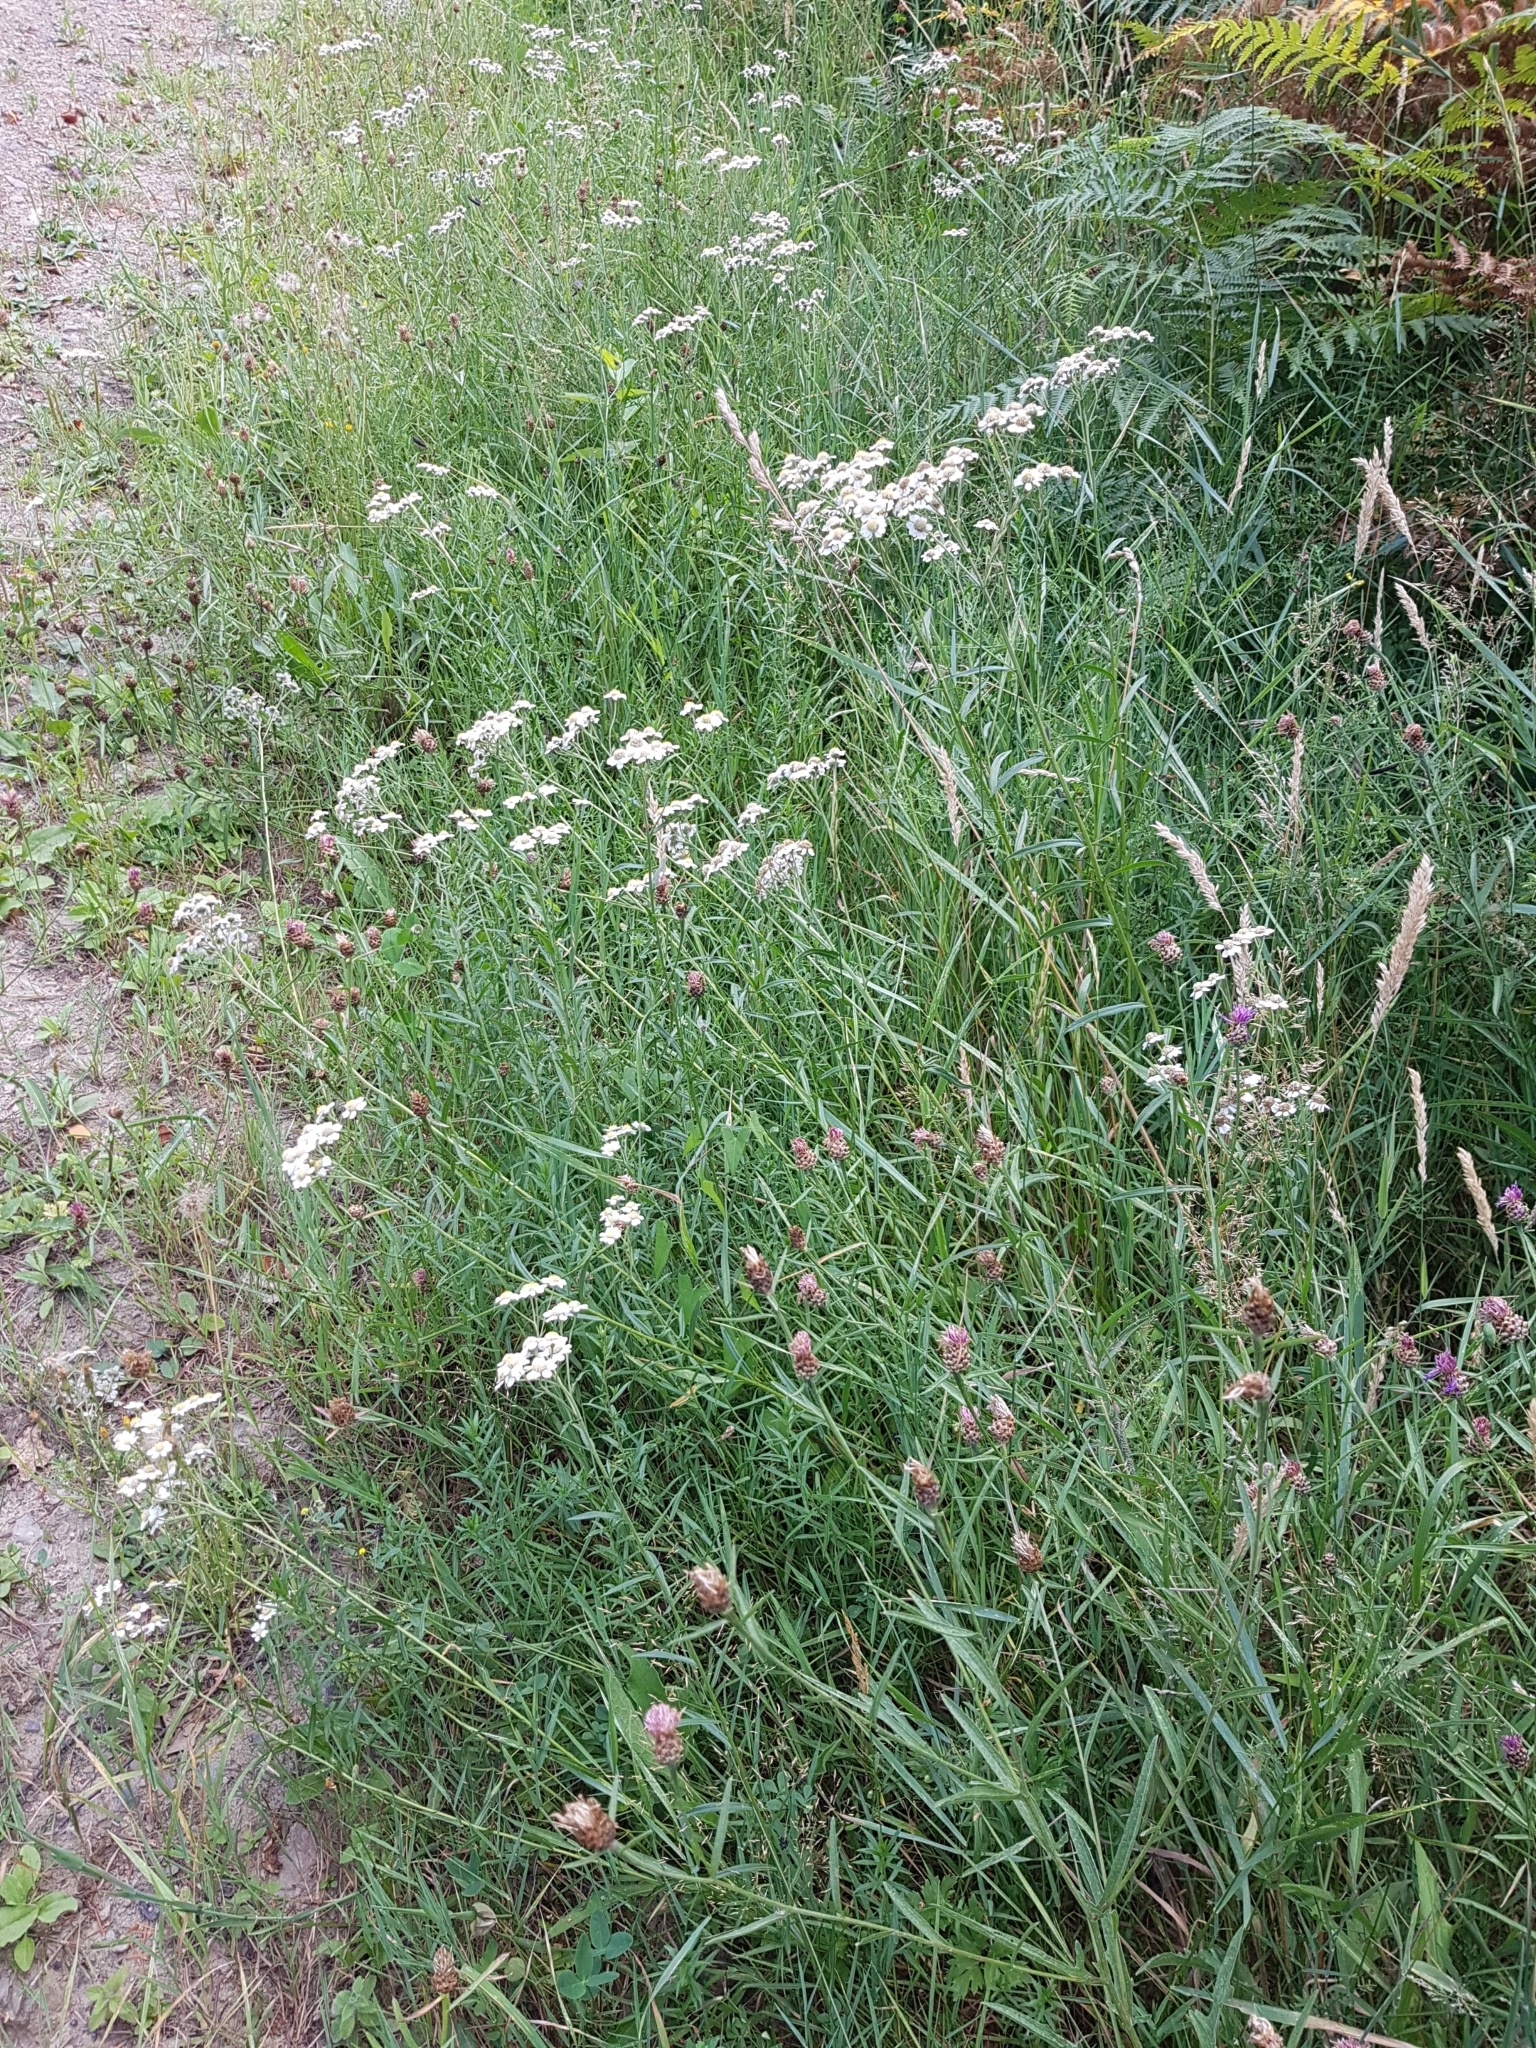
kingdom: Plantae
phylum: Tracheophyta
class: Magnoliopsida
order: Asterales
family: Asteraceae
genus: Achillea
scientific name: Achillea ptarmica
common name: Sneezeweed
